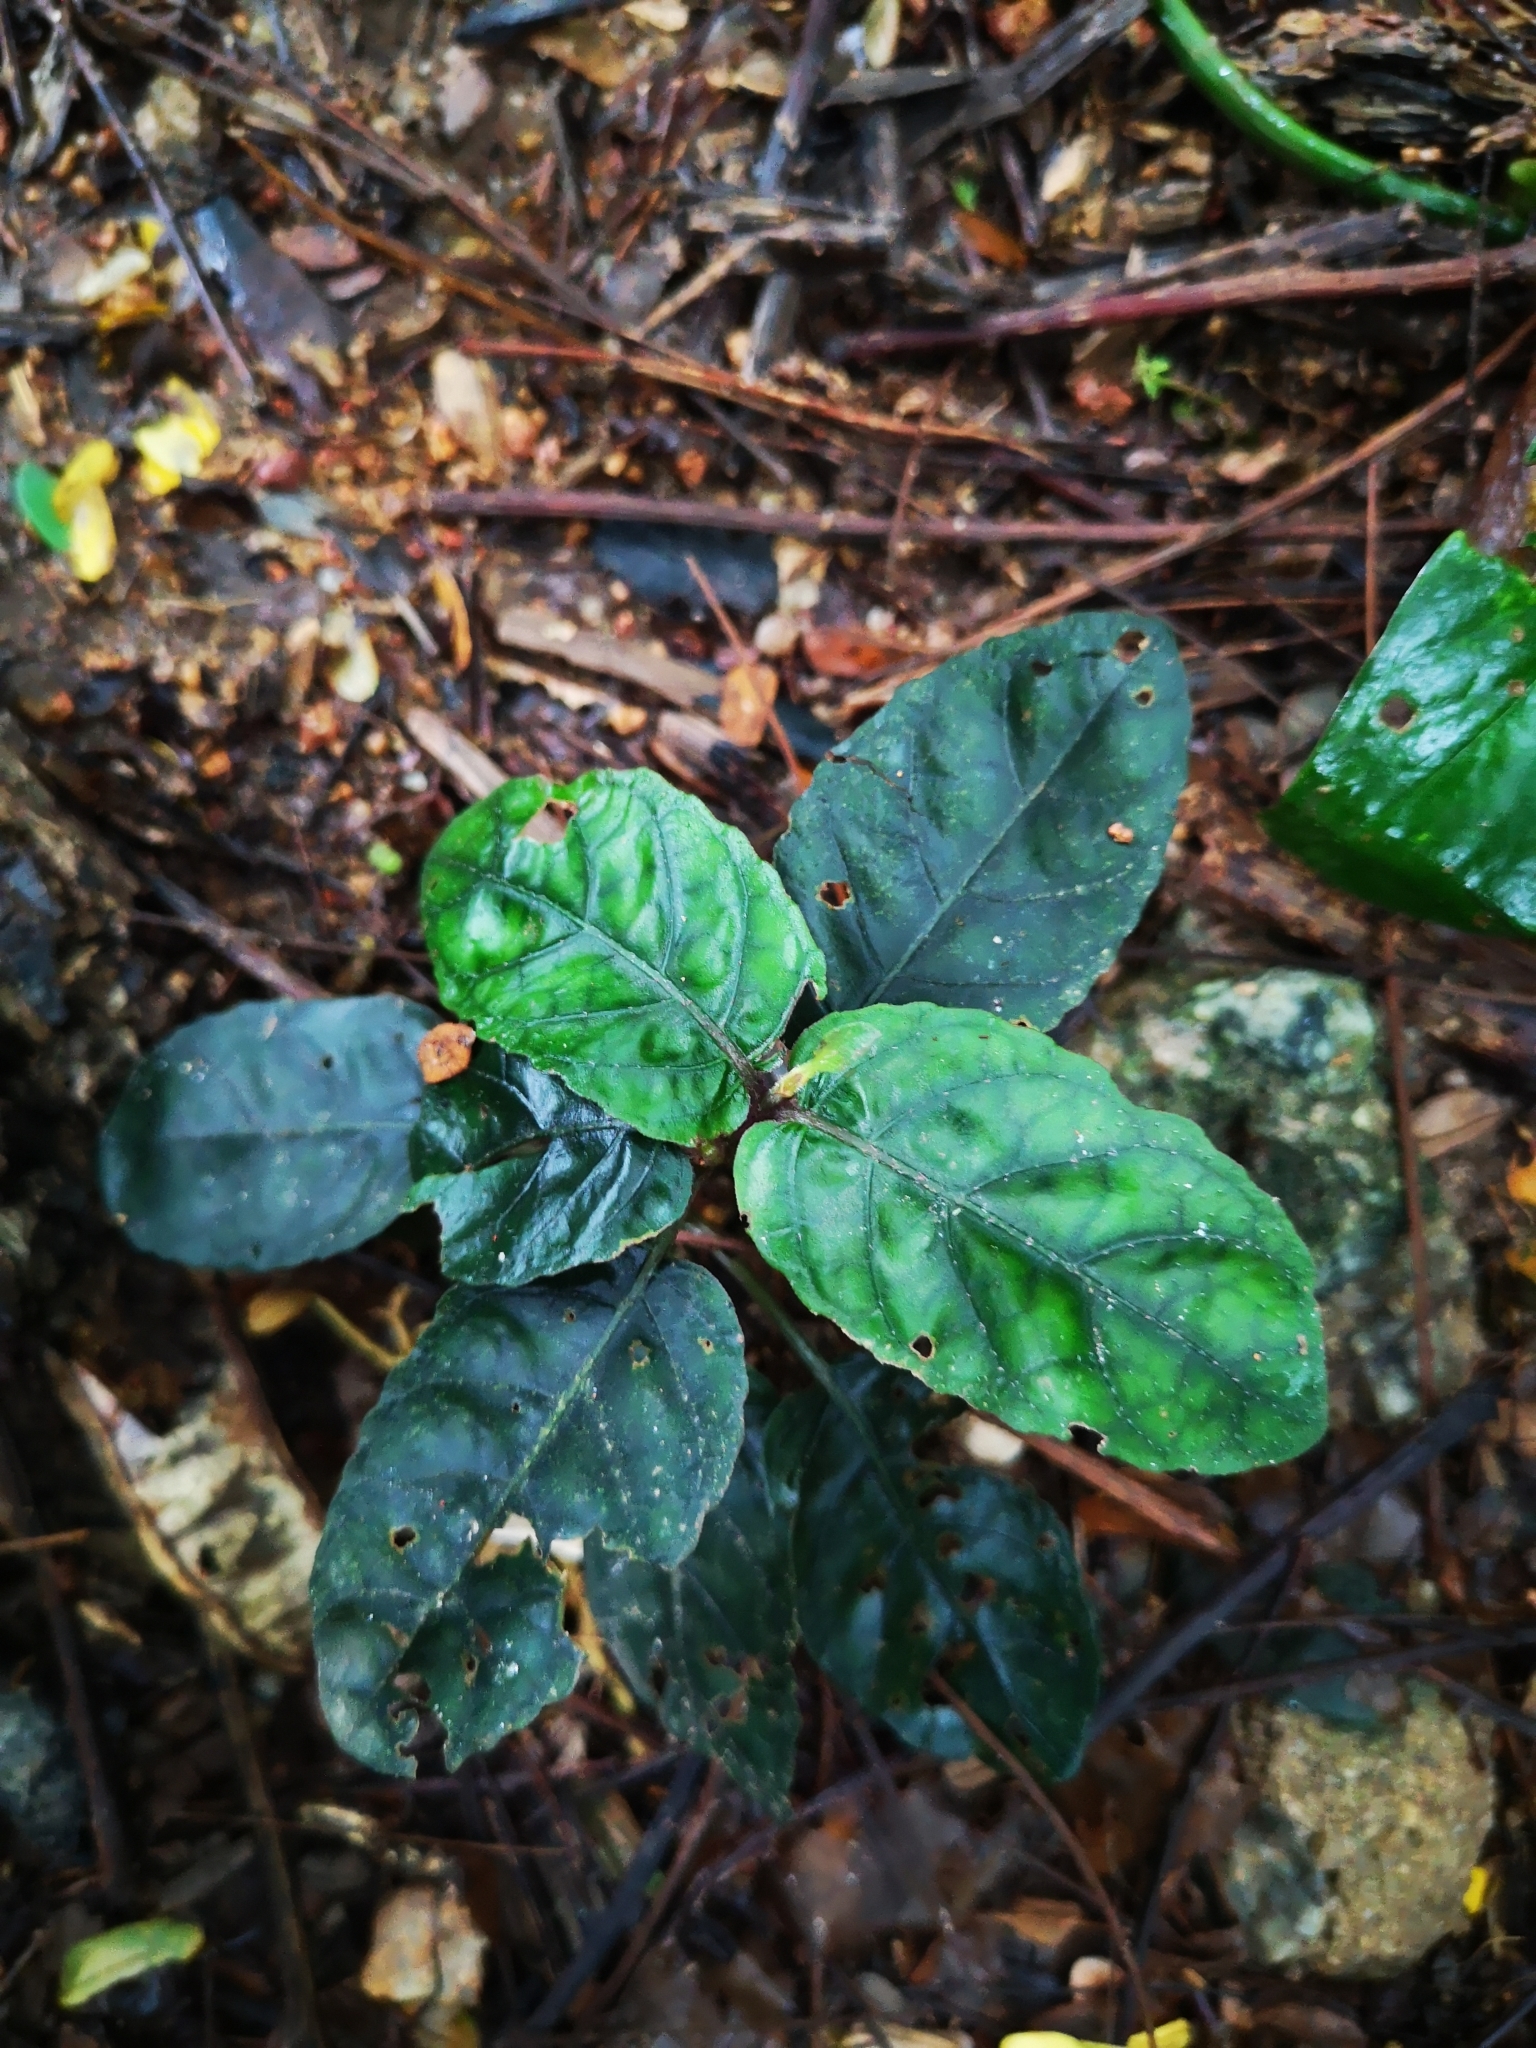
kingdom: Plantae
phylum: Tracheophyta
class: Magnoliopsida
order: Lamiales
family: Acanthaceae
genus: Strobilanthes
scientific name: Strobilanthes reptans
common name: Acanthaceae
